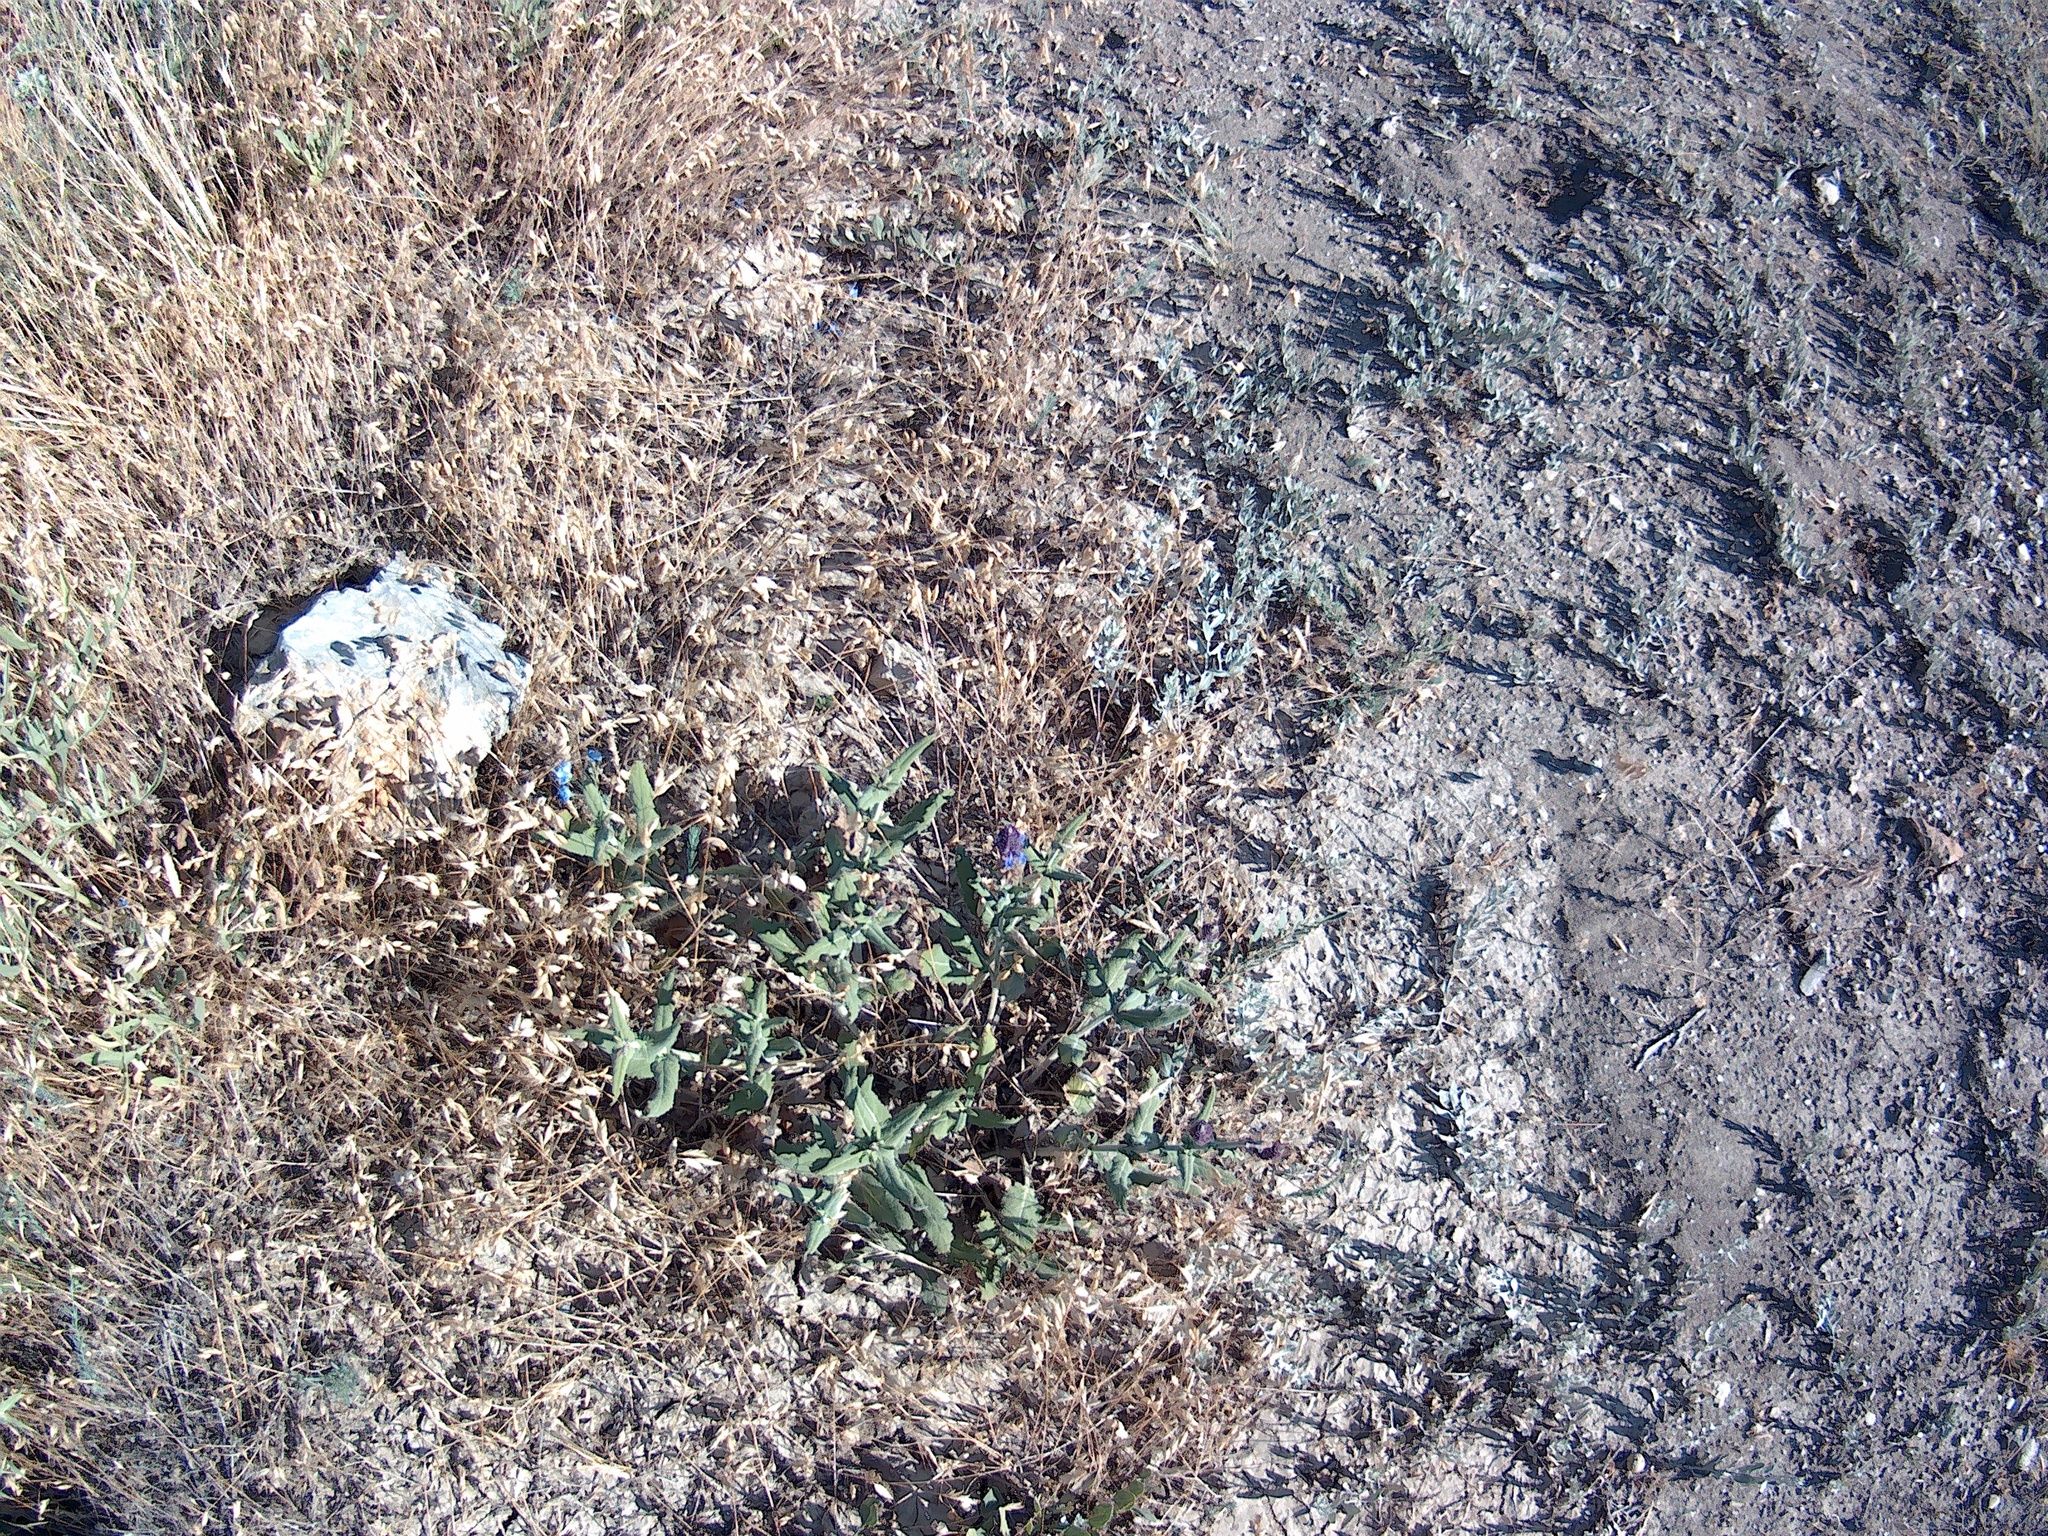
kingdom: Plantae
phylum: Tracheophyta
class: Magnoliopsida
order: Lamiales
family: Lamiaceae
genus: Salvia
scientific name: Salvia nemorosa
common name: Balkan clary
